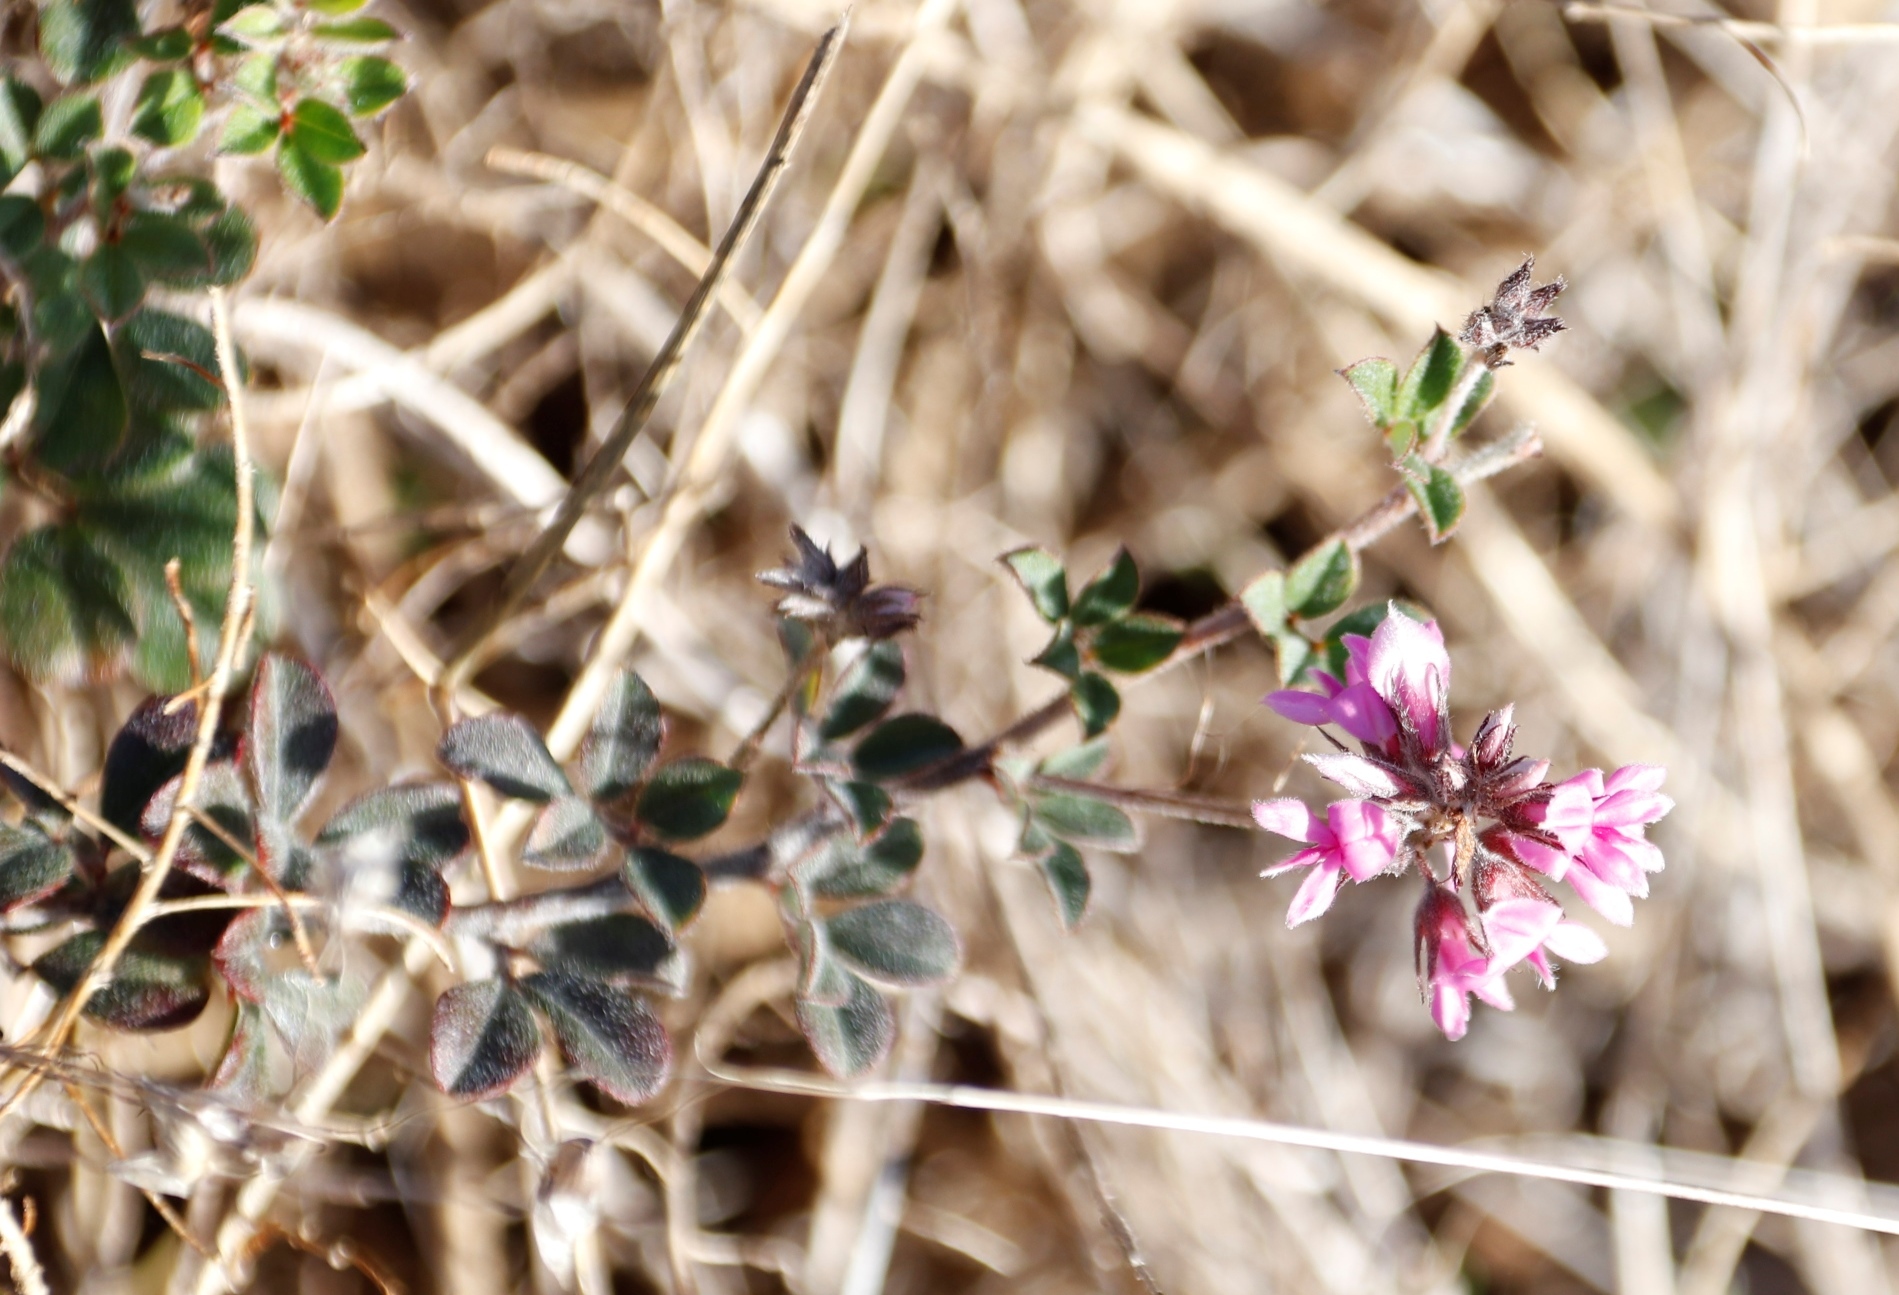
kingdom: Plantae
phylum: Tracheophyta
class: Magnoliopsida
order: Fabales
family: Fabaceae
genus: Indigofera
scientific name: Indigofera mauritanica
